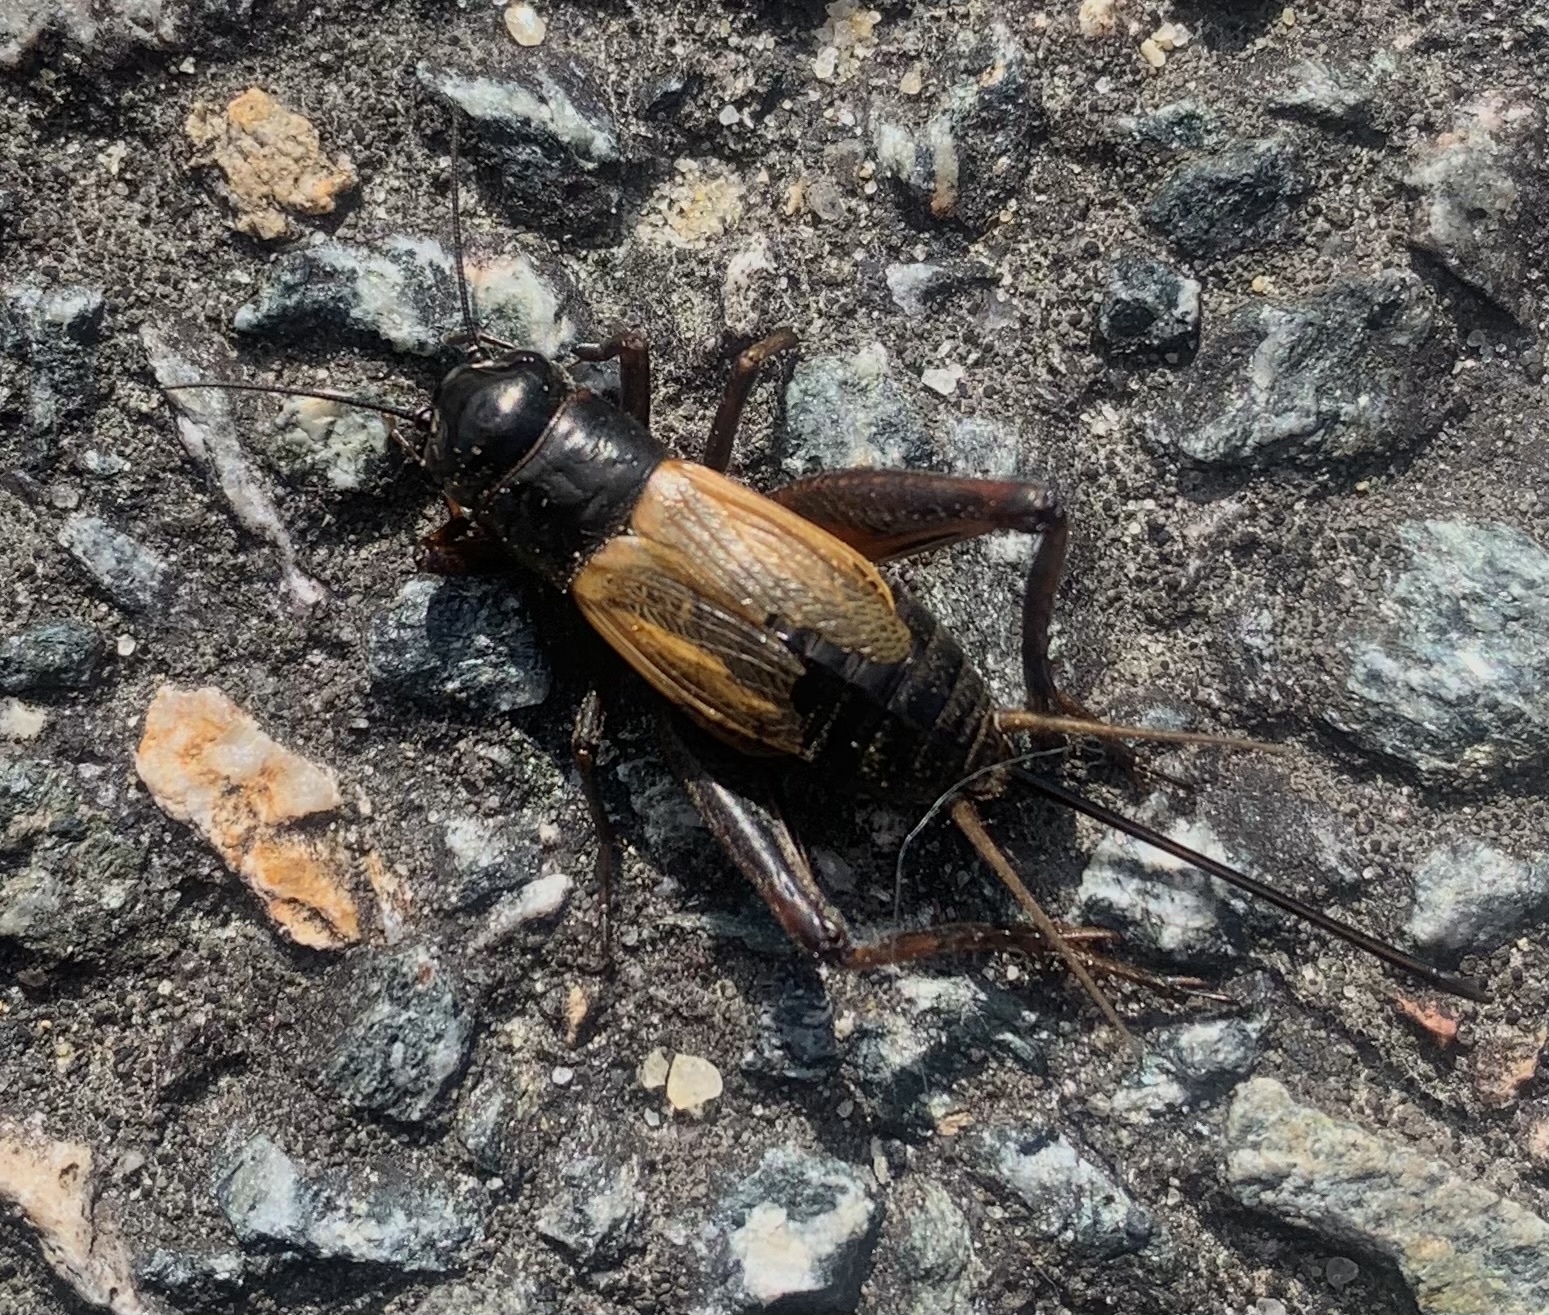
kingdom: Animalia
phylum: Arthropoda
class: Insecta
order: Orthoptera
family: Gryllidae
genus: Gryllus
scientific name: Gryllus
